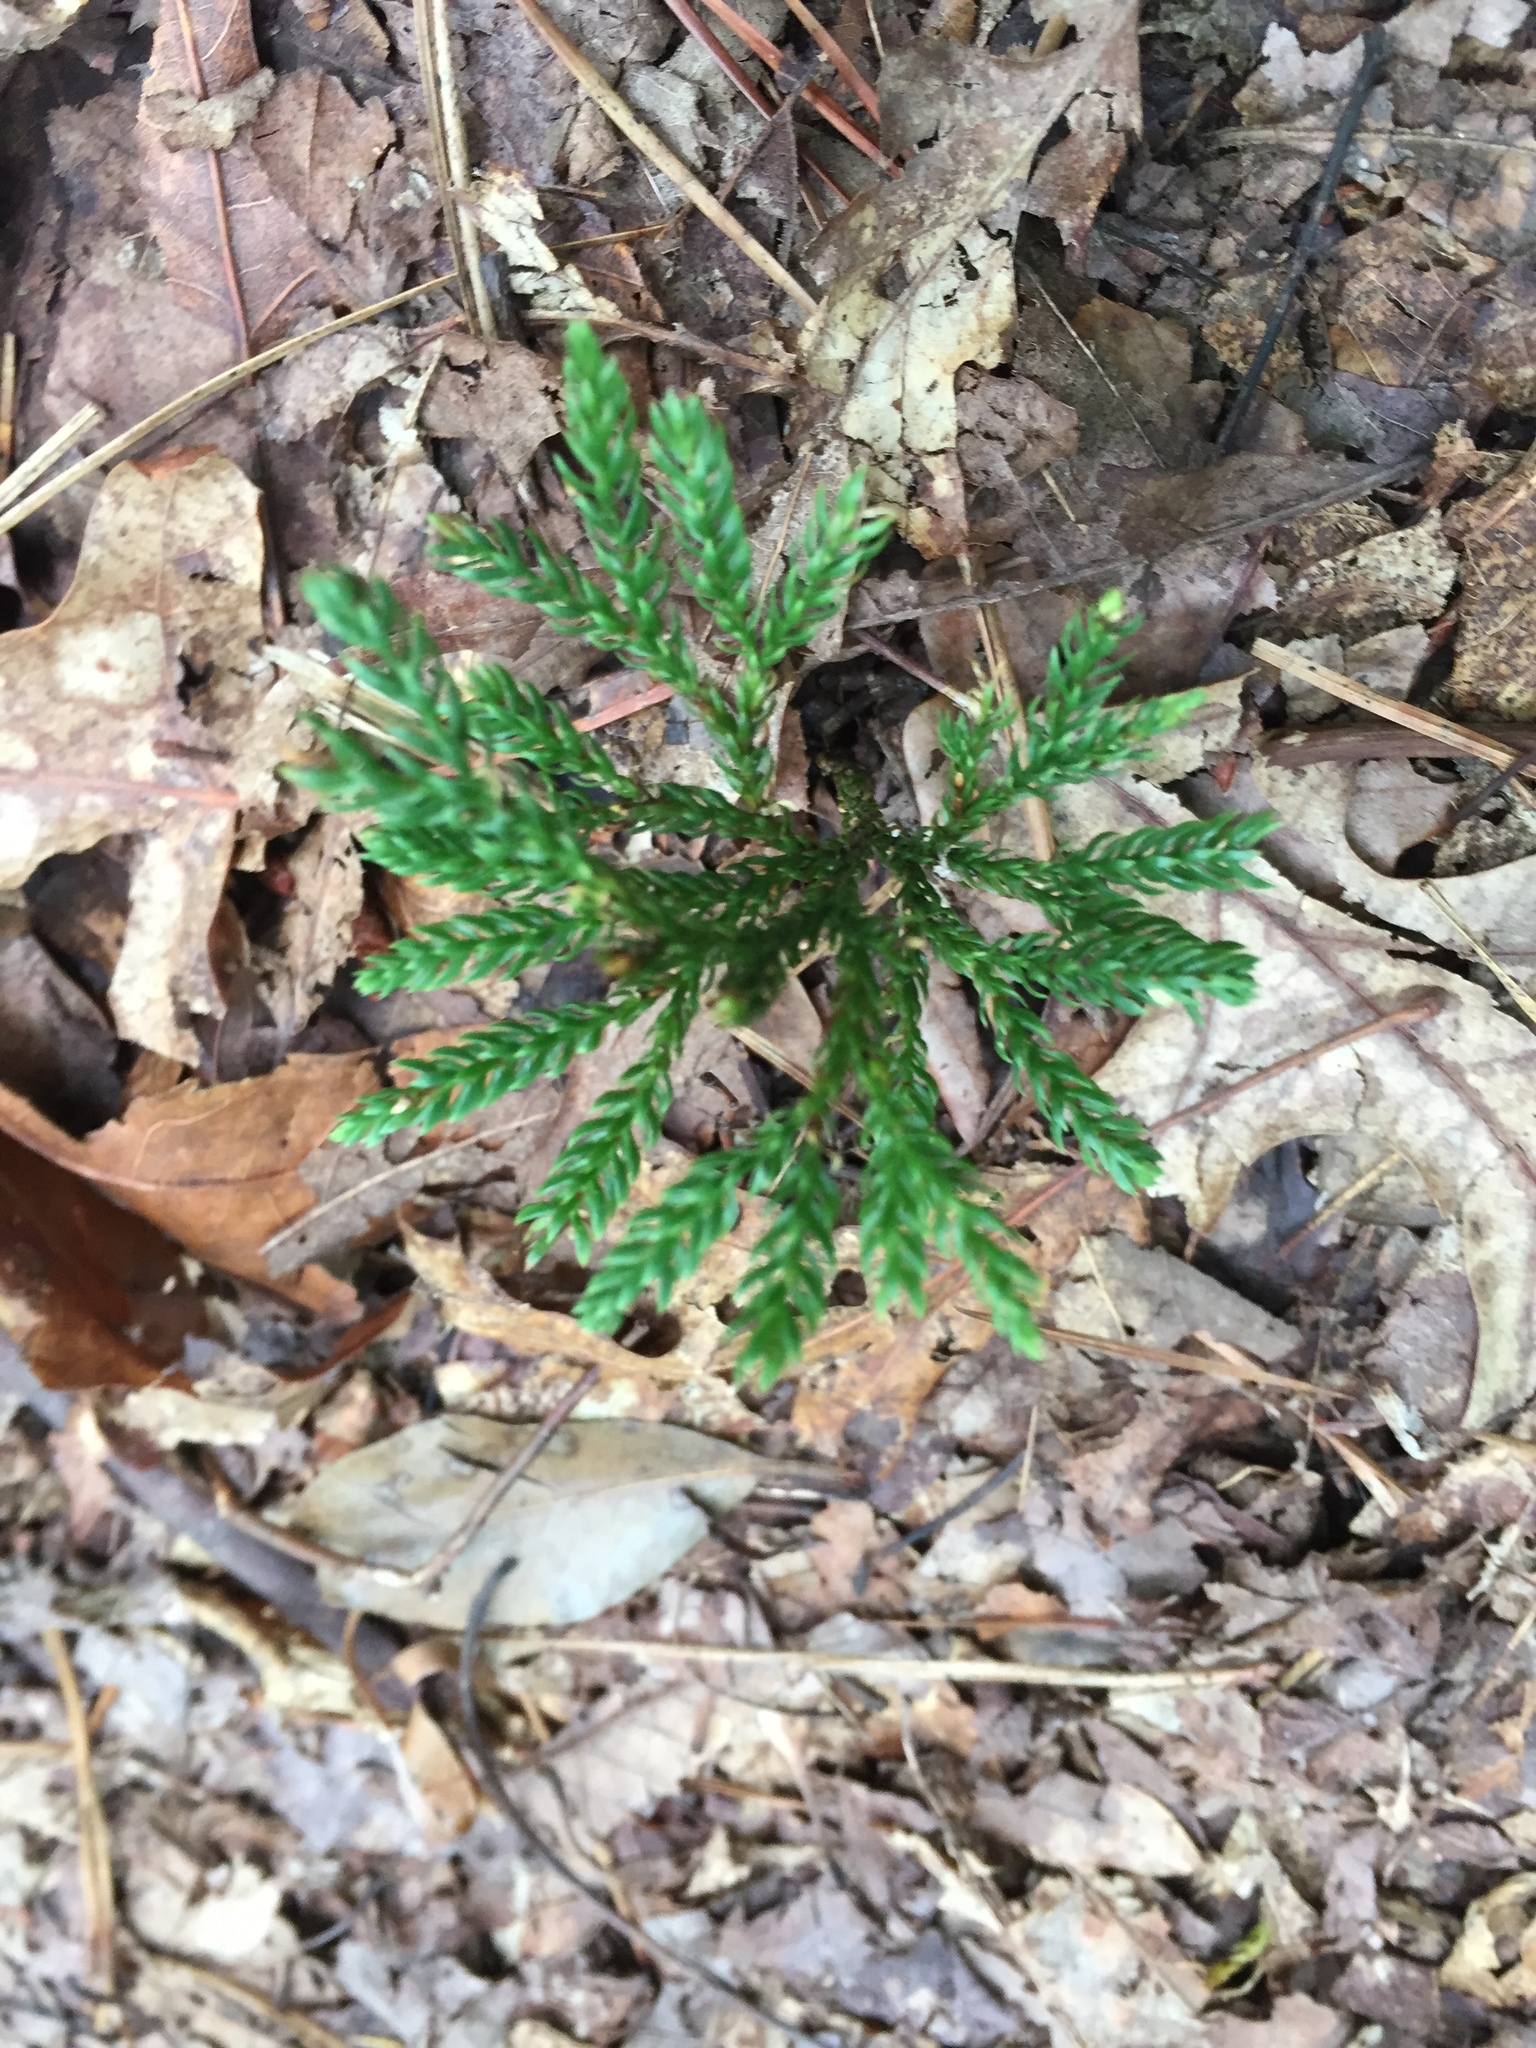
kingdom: Plantae
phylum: Tracheophyta
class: Lycopodiopsida
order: Lycopodiales
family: Lycopodiaceae
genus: Dendrolycopodium
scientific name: Dendrolycopodium obscurum
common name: Common ground-pine
